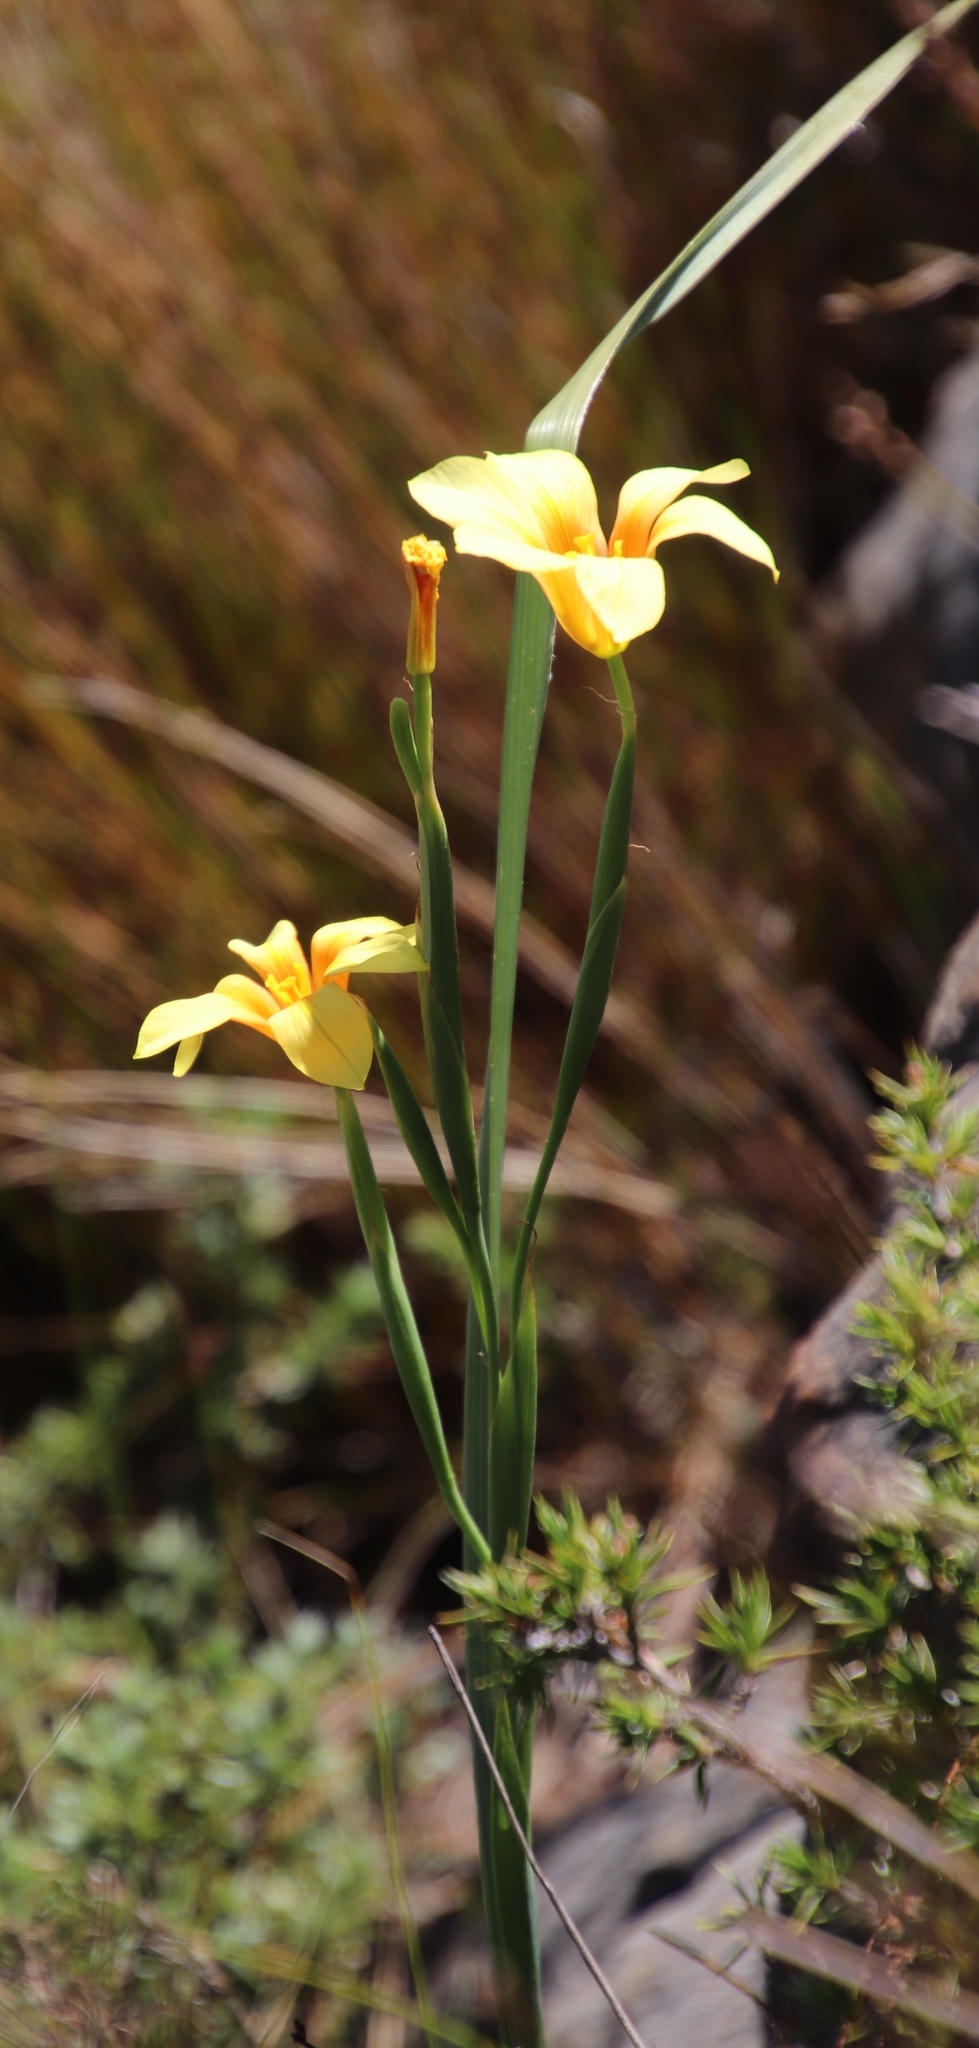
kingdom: Plantae
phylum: Tracheophyta
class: Liliopsida
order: Asparagales
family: Iridaceae
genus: Moraea
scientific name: Moraea ochroleuca
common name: Red tulp
